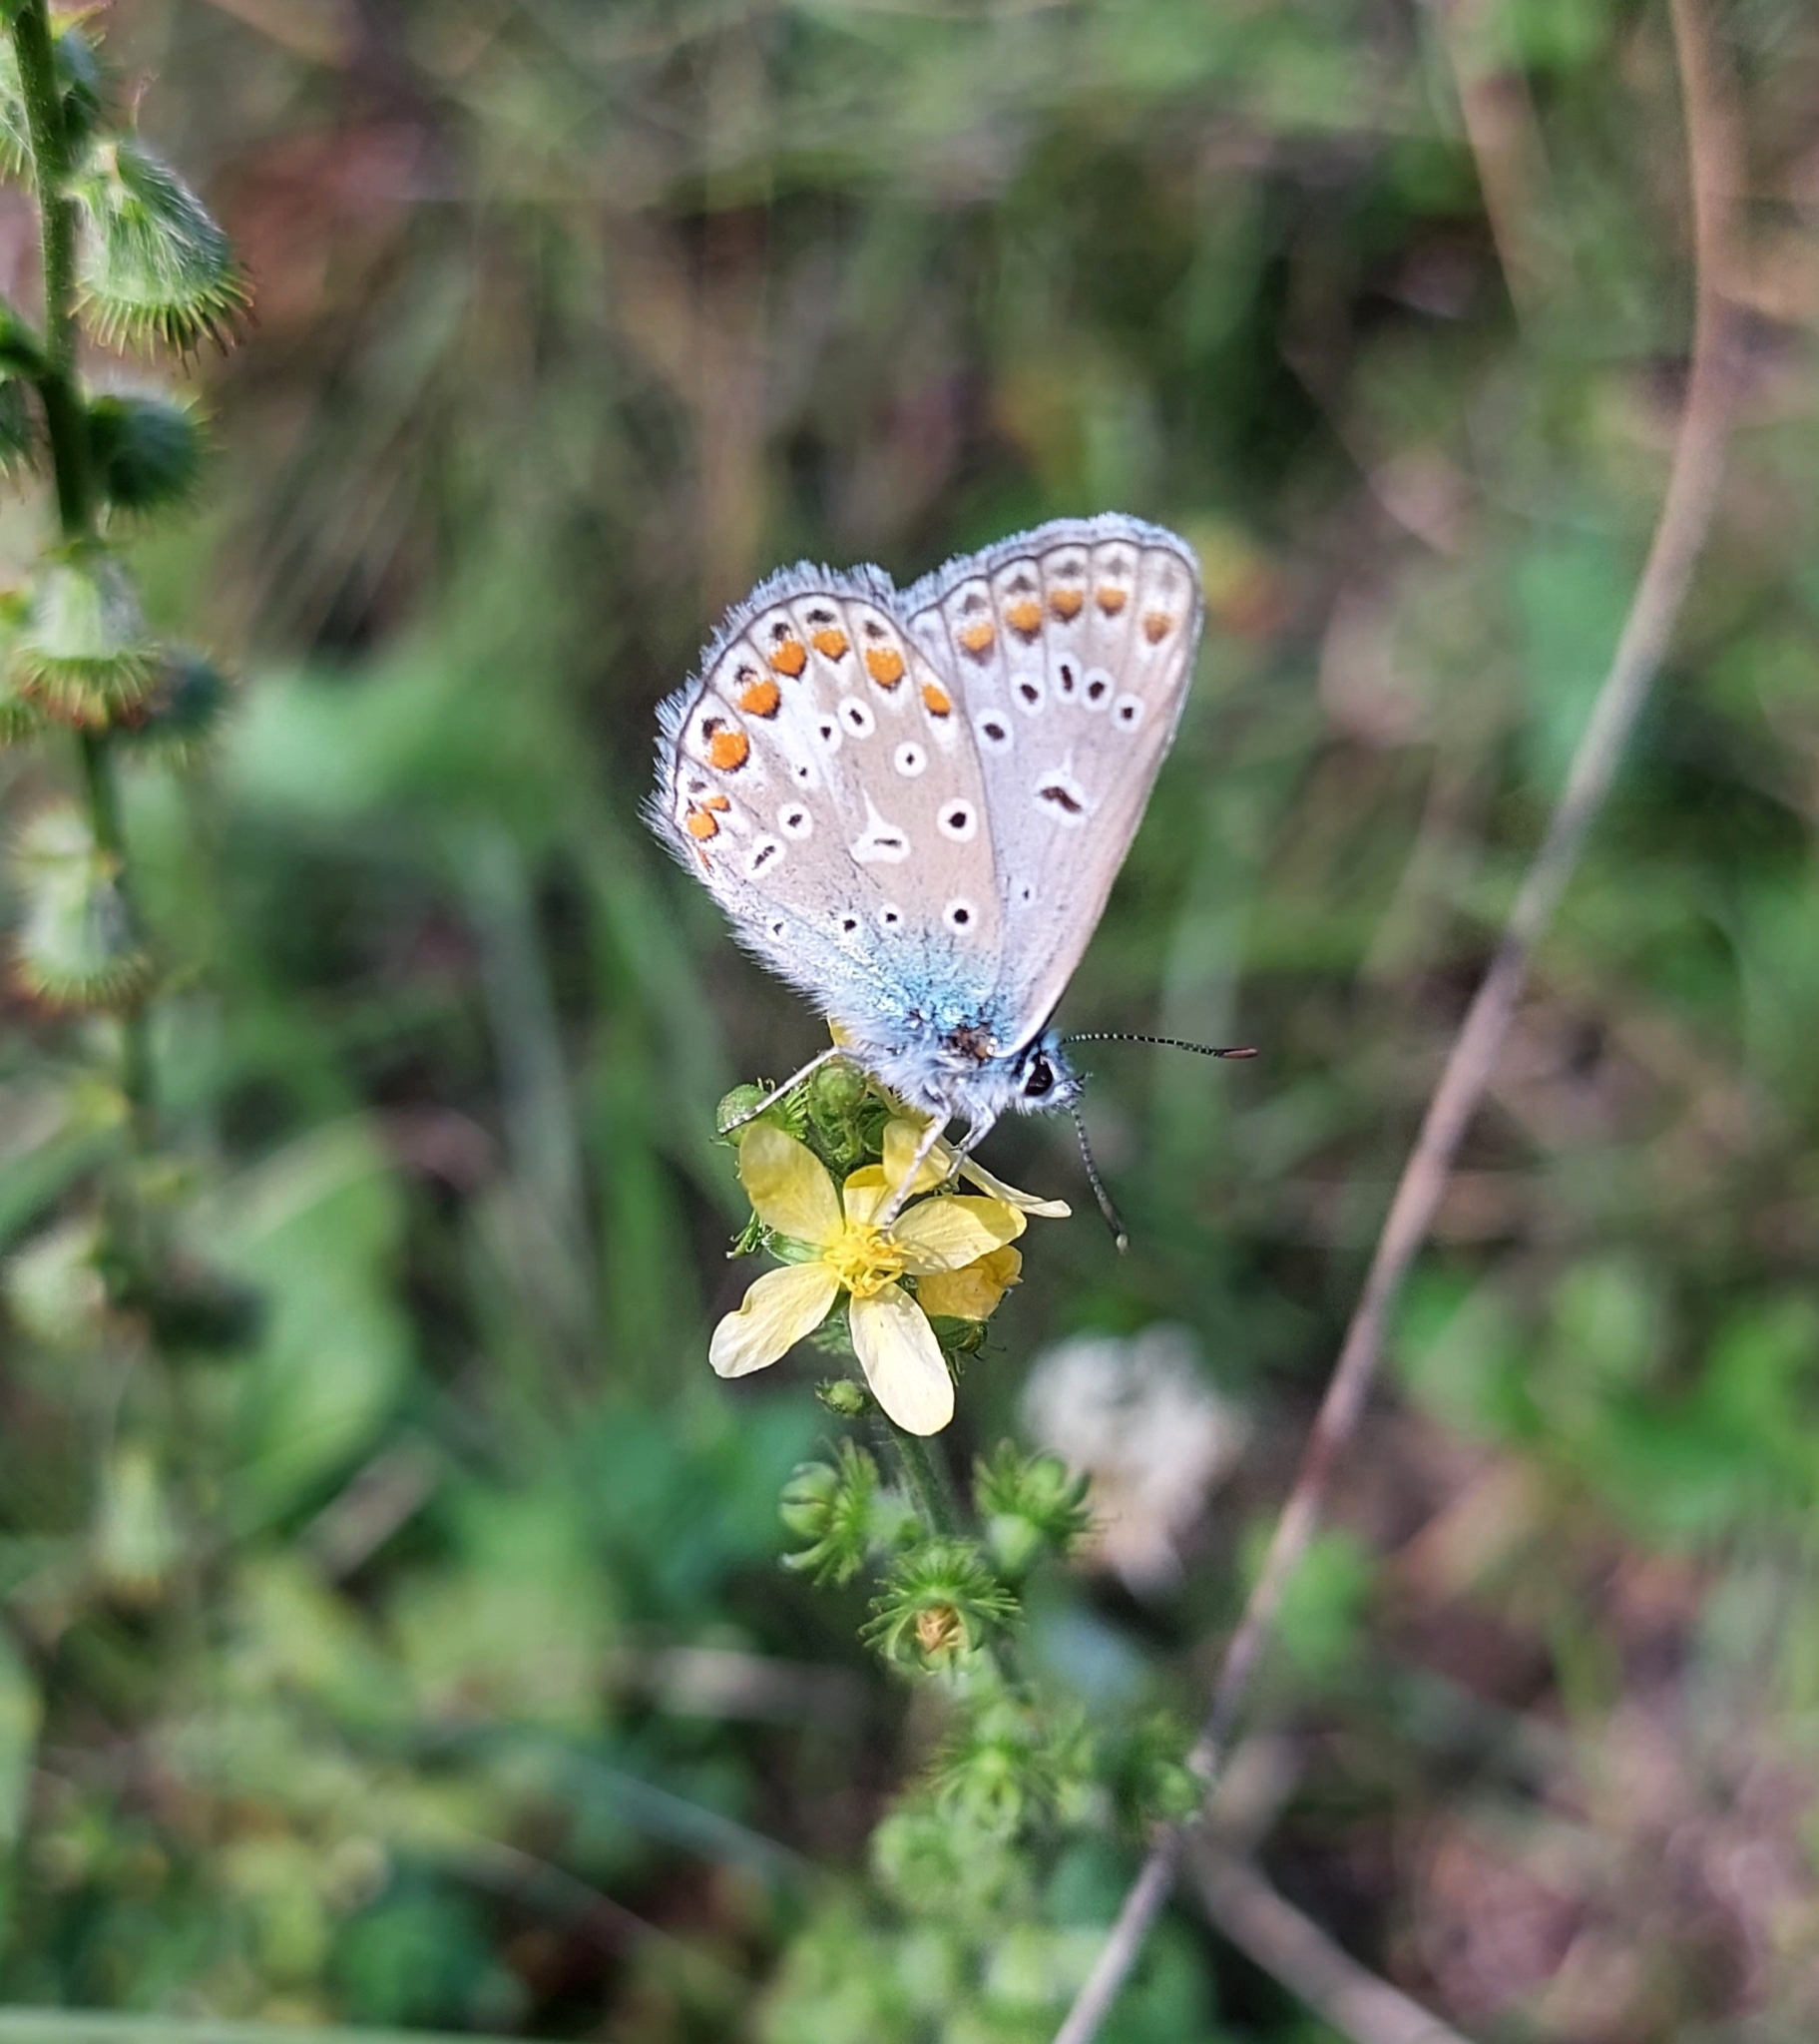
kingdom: Animalia
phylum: Arthropoda
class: Insecta
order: Lepidoptera
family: Lycaenidae
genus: Polyommatus
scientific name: Polyommatus icarus
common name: Common blue
